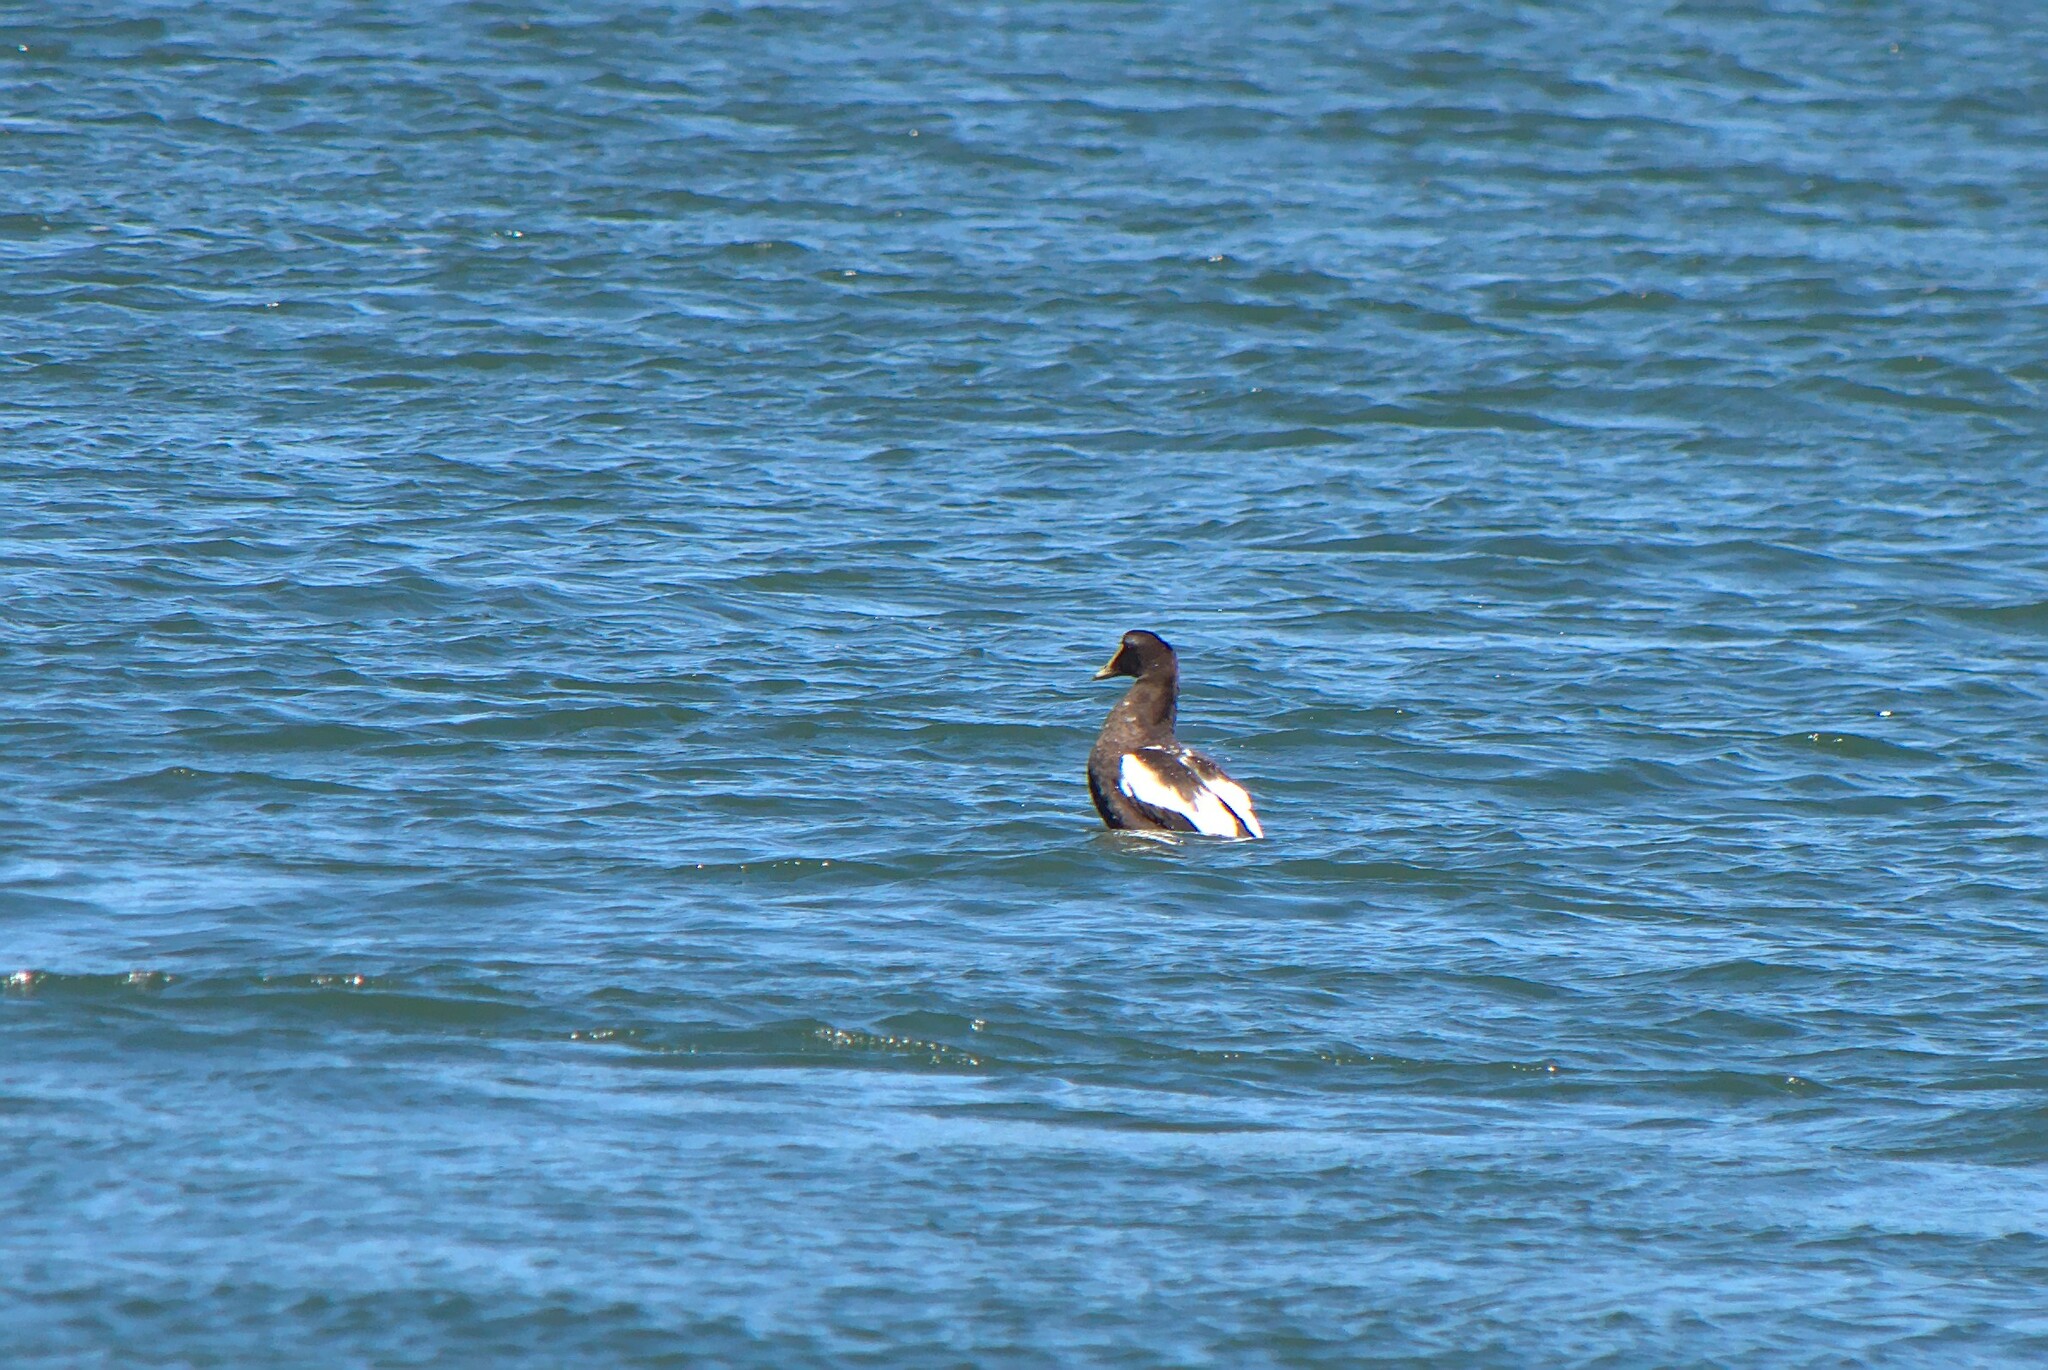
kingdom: Animalia
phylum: Chordata
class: Aves
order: Anseriformes
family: Anatidae
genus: Somateria
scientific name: Somateria mollissima
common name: Common eider
